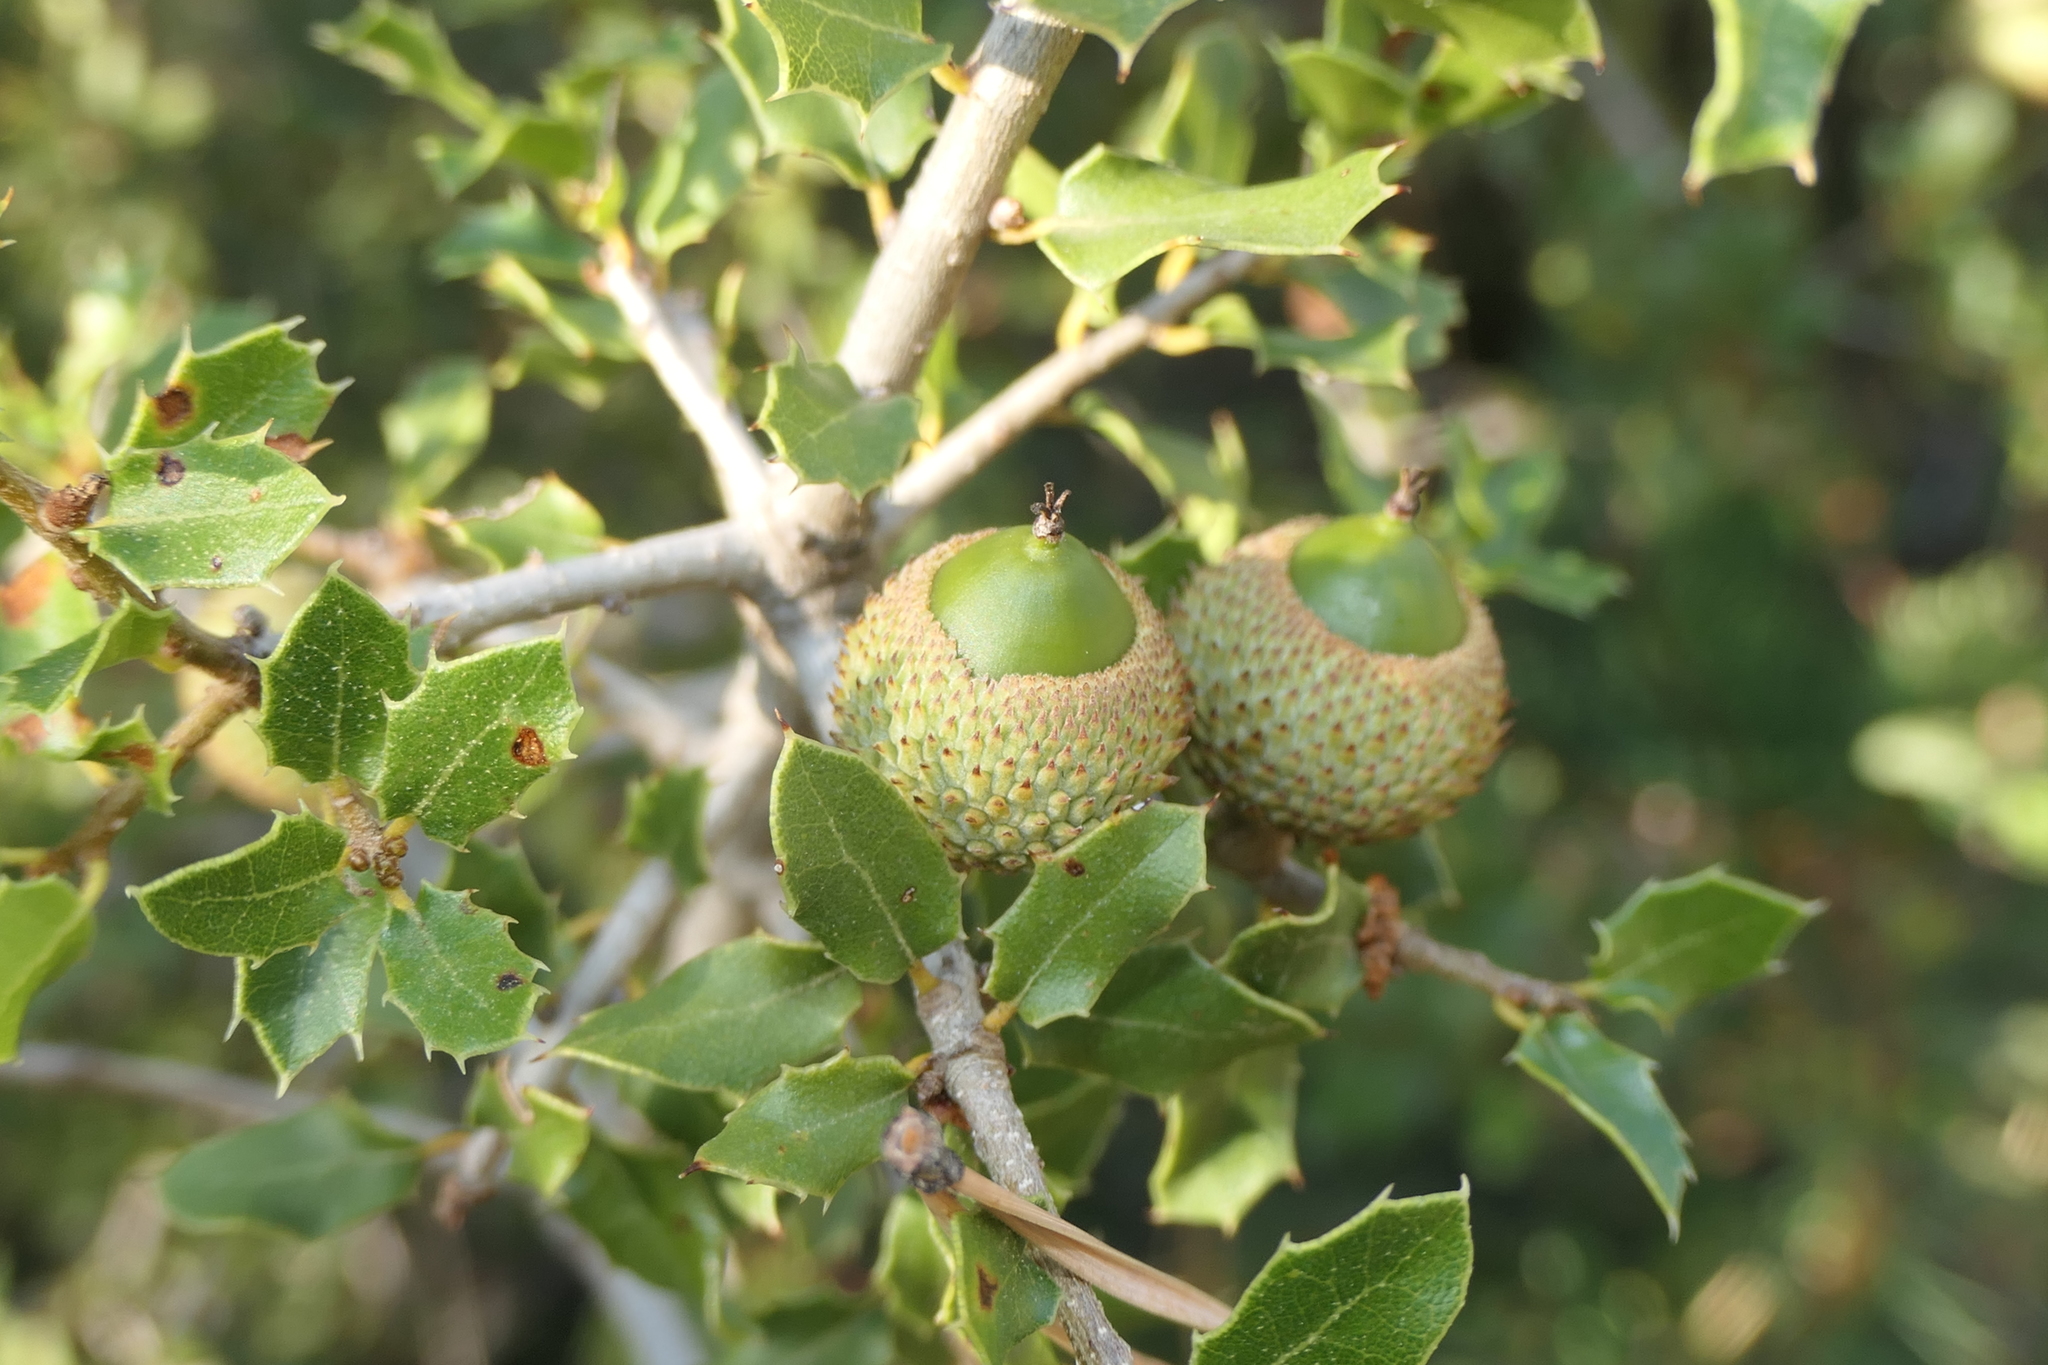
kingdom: Plantae
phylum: Tracheophyta
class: Magnoliopsida
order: Fagales
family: Fagaceae
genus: Quercus
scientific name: Quercus coccifera
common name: Kermes oak
